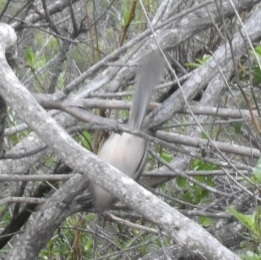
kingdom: Animalia
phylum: Chordata
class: Aves
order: Passeriformes
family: Sylviidae
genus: Chamaea
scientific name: Chamaea fasciata
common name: Wrentit
